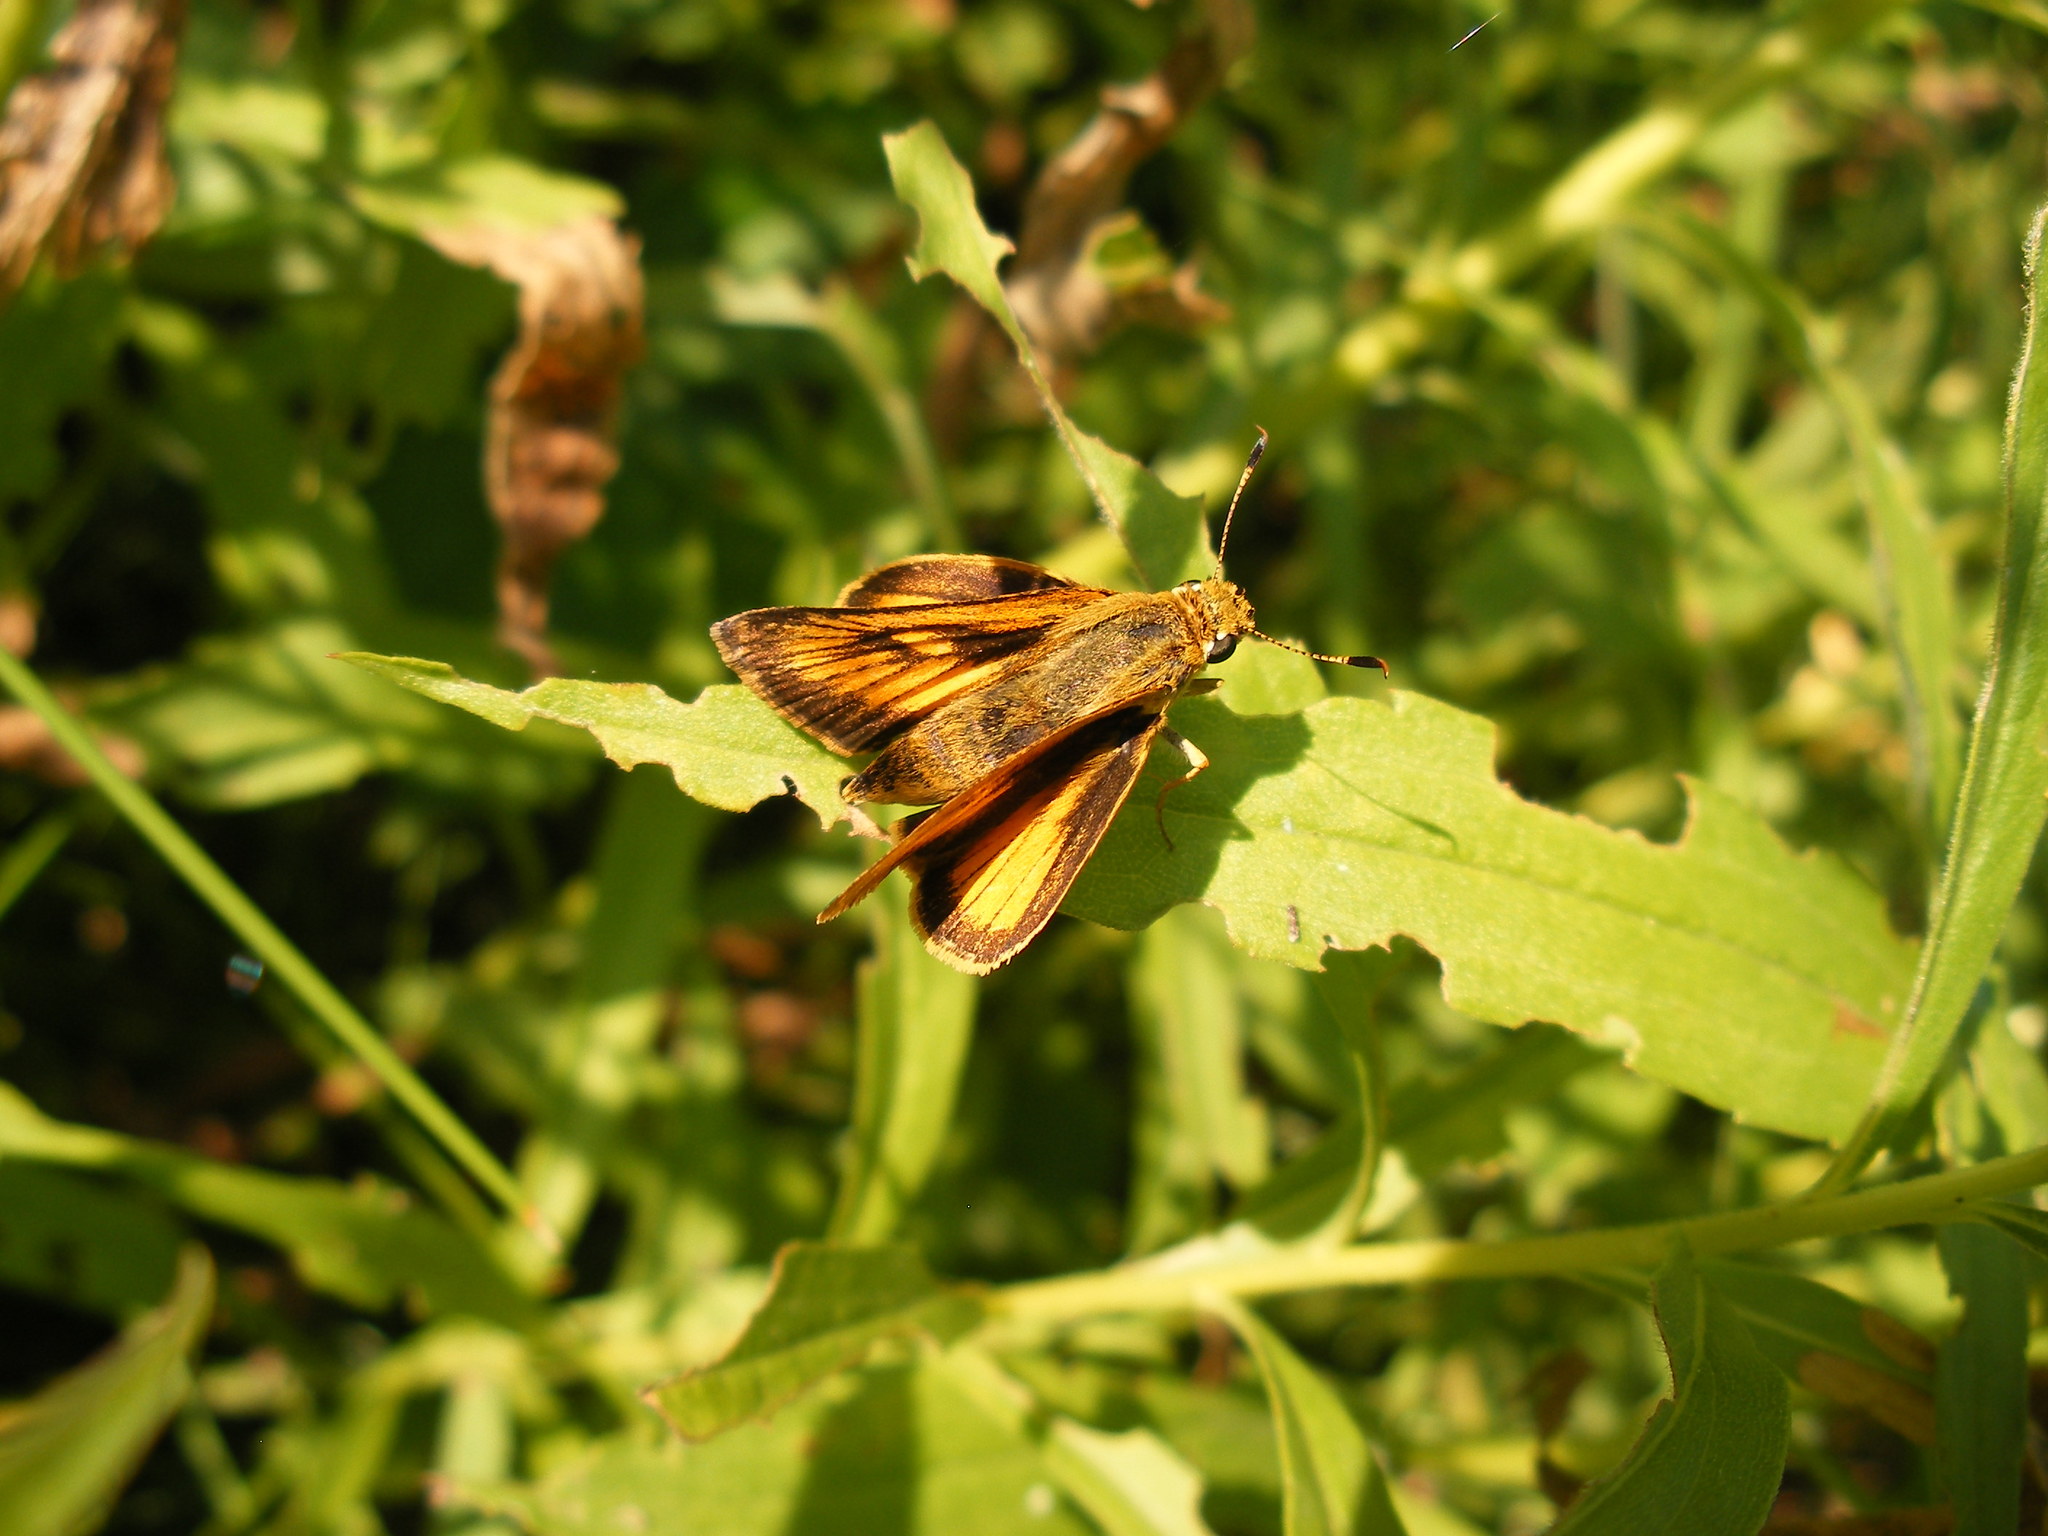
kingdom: Animalia
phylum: Arthropoda
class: Insecta
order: Lepidoptera
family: Hesperiidae
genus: Atrytone
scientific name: Atrytone delaware
